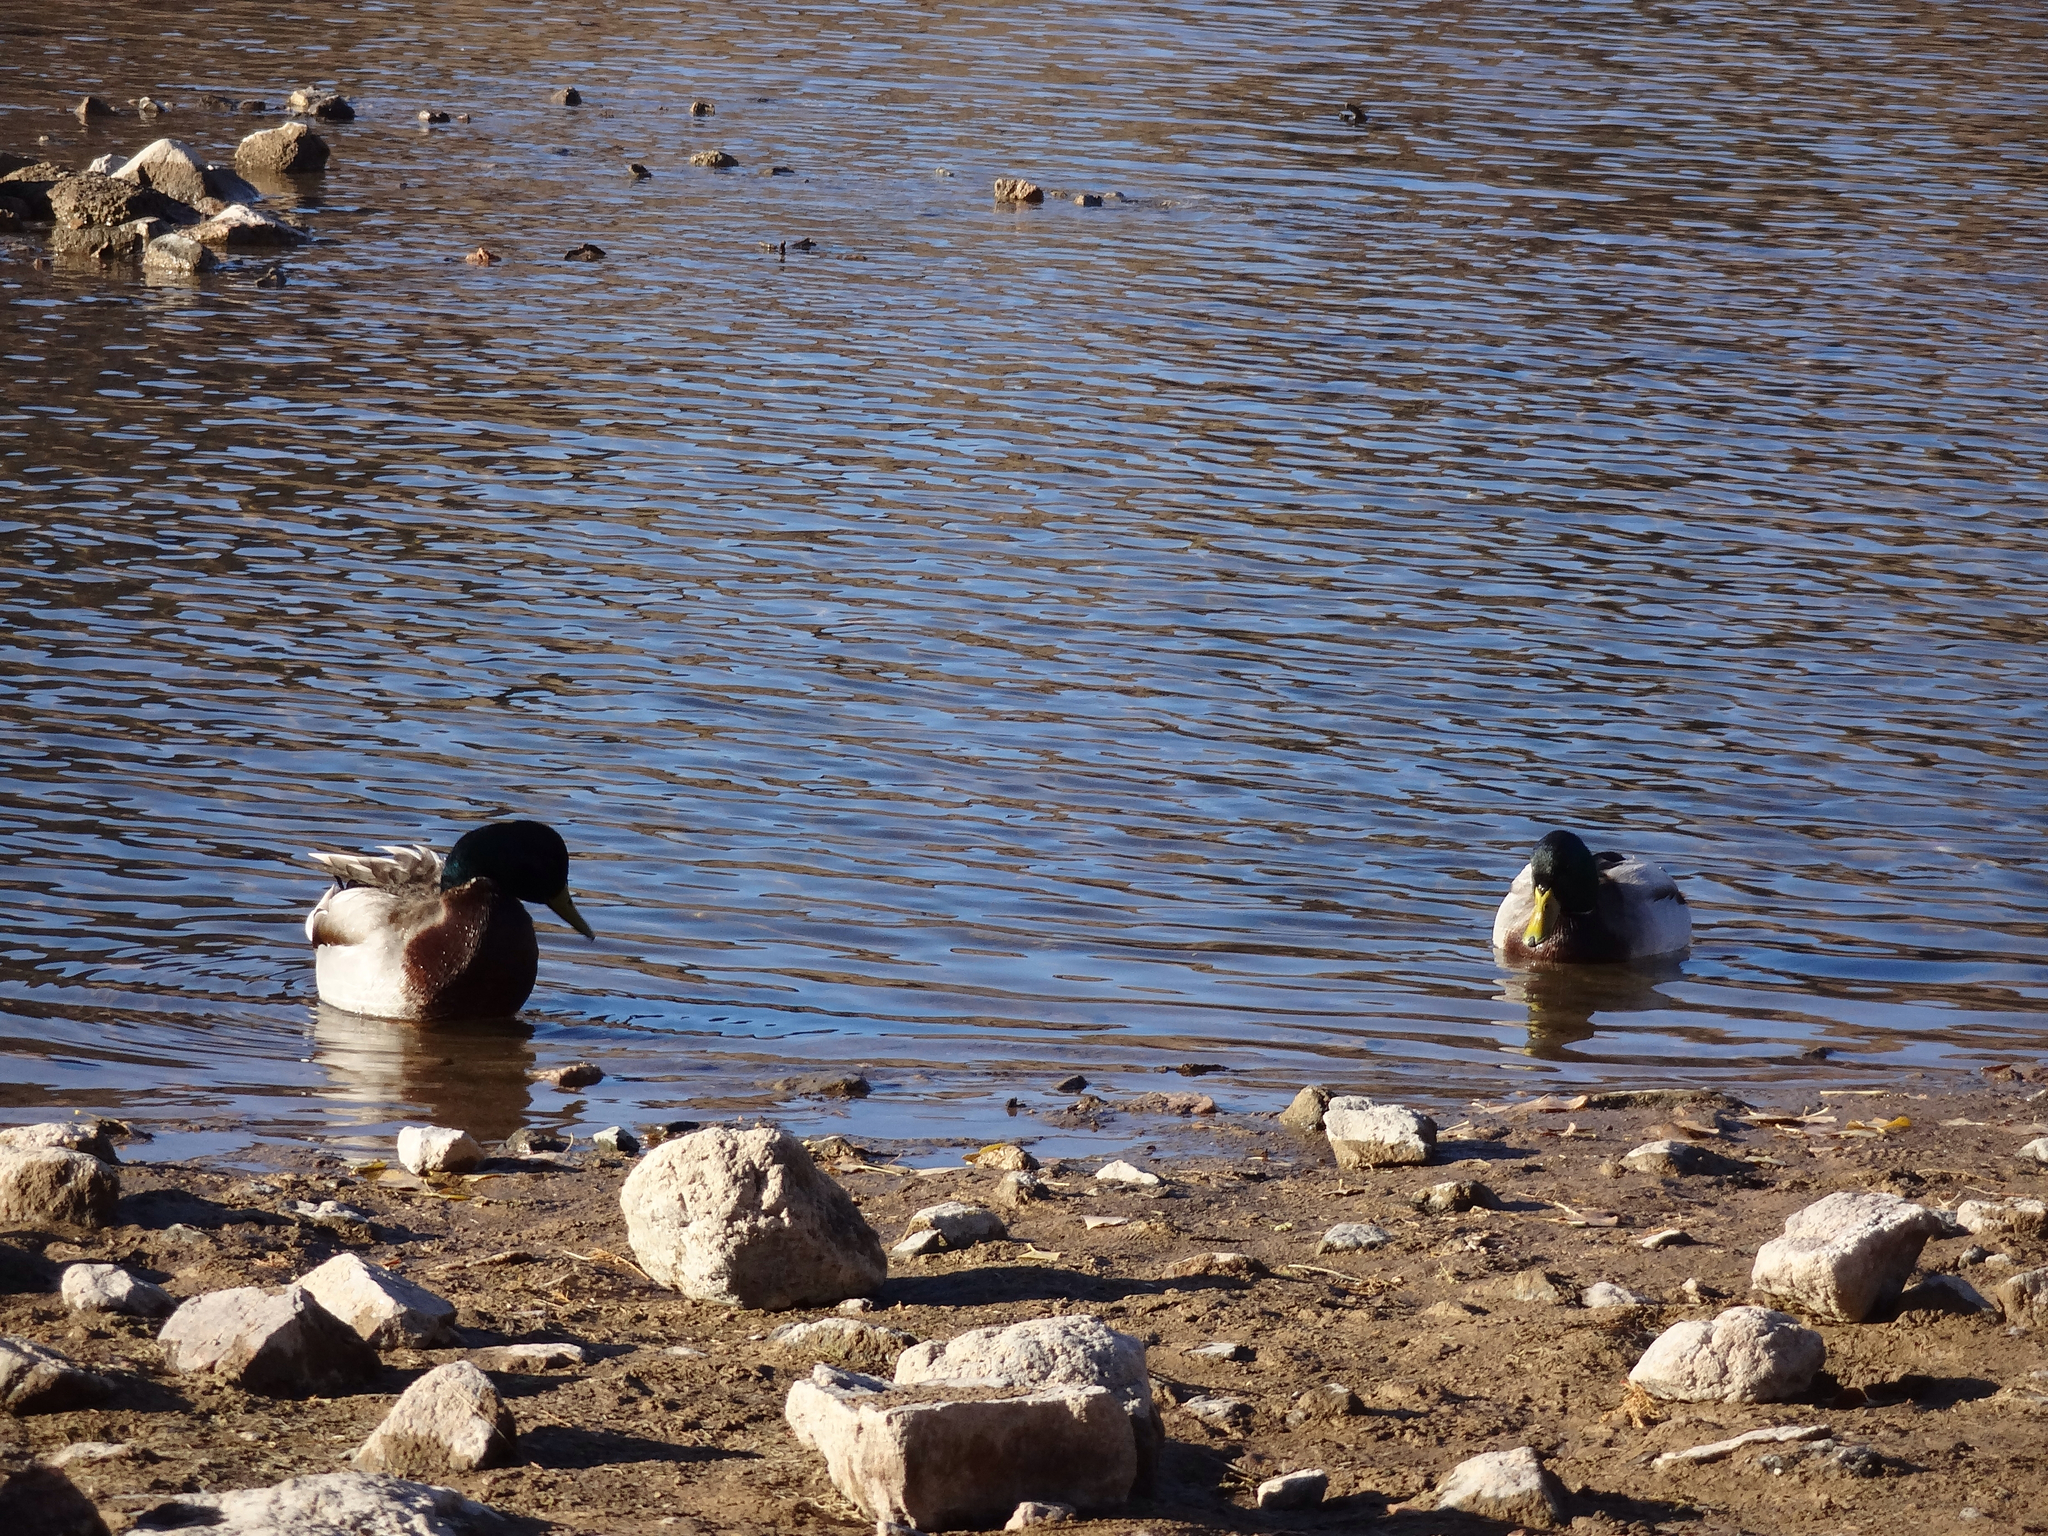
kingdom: Animalia
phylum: Chordata
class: Aves
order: Anseriformes
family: Anatidae
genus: Anas
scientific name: Anas platyrhynchos
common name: Mallard
